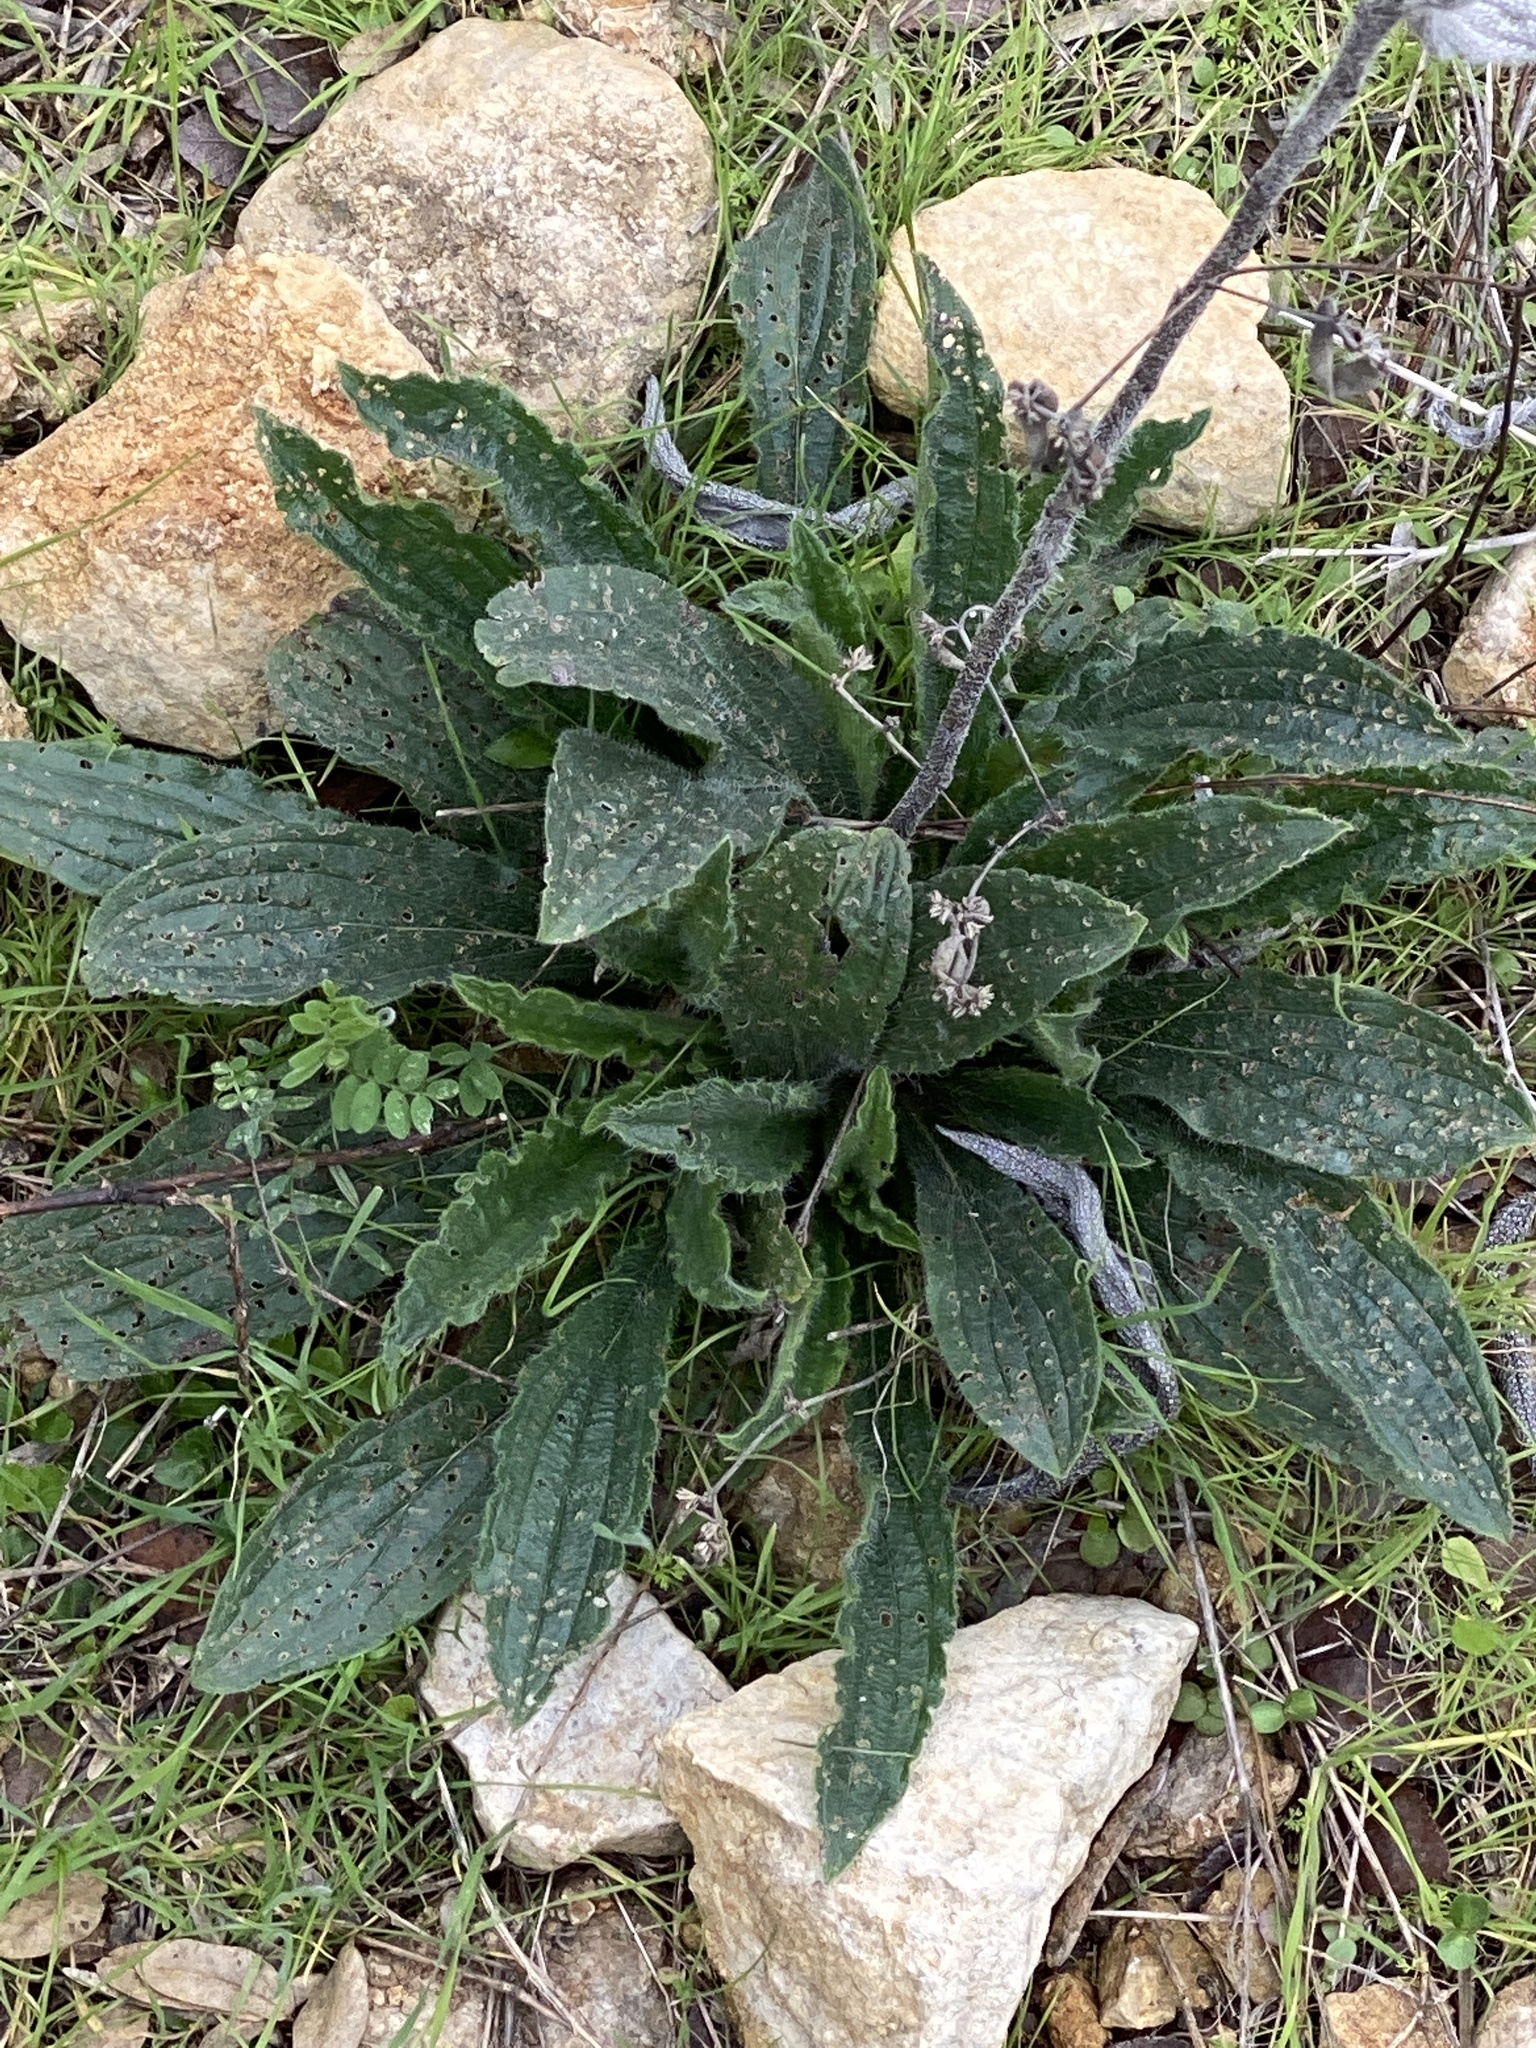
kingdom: Plantae
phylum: Tracheophyta
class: Magnoliopsida
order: Boraginales
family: Boraginaceae
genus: Lithospermum
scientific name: Lithospermum caroliniense
